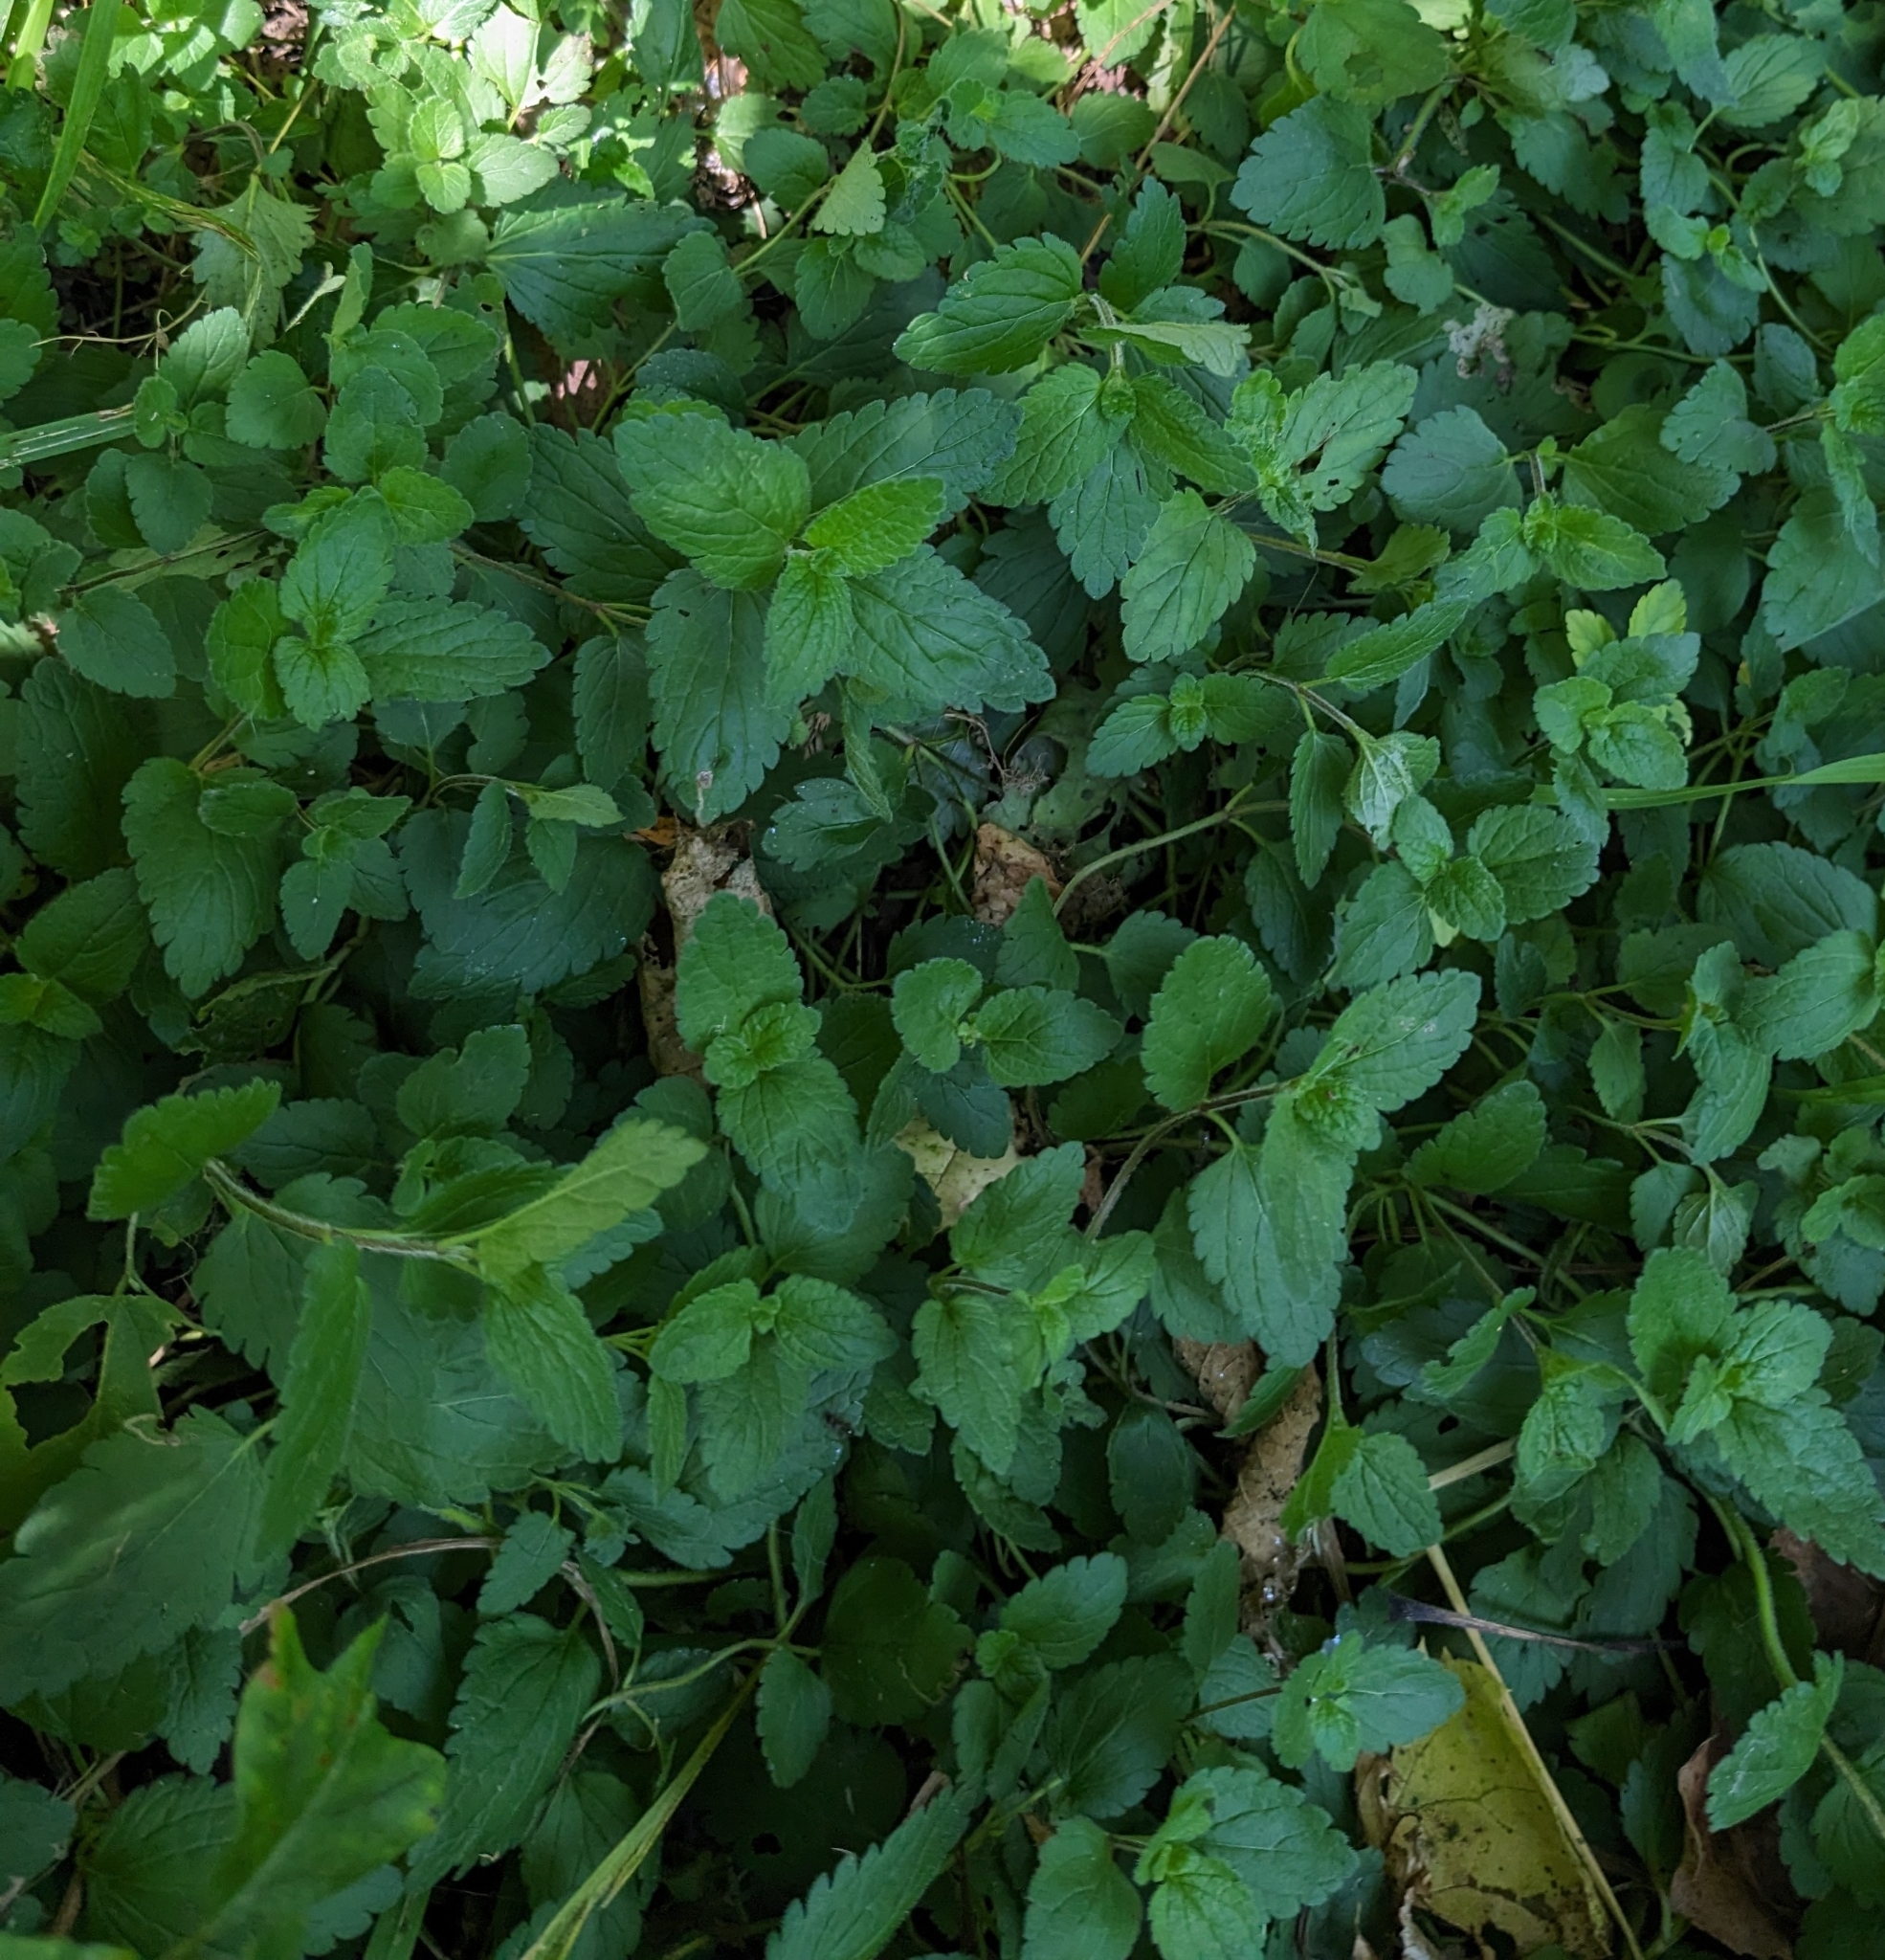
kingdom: Plantae
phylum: Tracheophyta
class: Magnoliopsida
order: Lamiales
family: Plantaginaceae
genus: Veronica
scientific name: Veronica chamaedrys
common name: Germander speedwell
